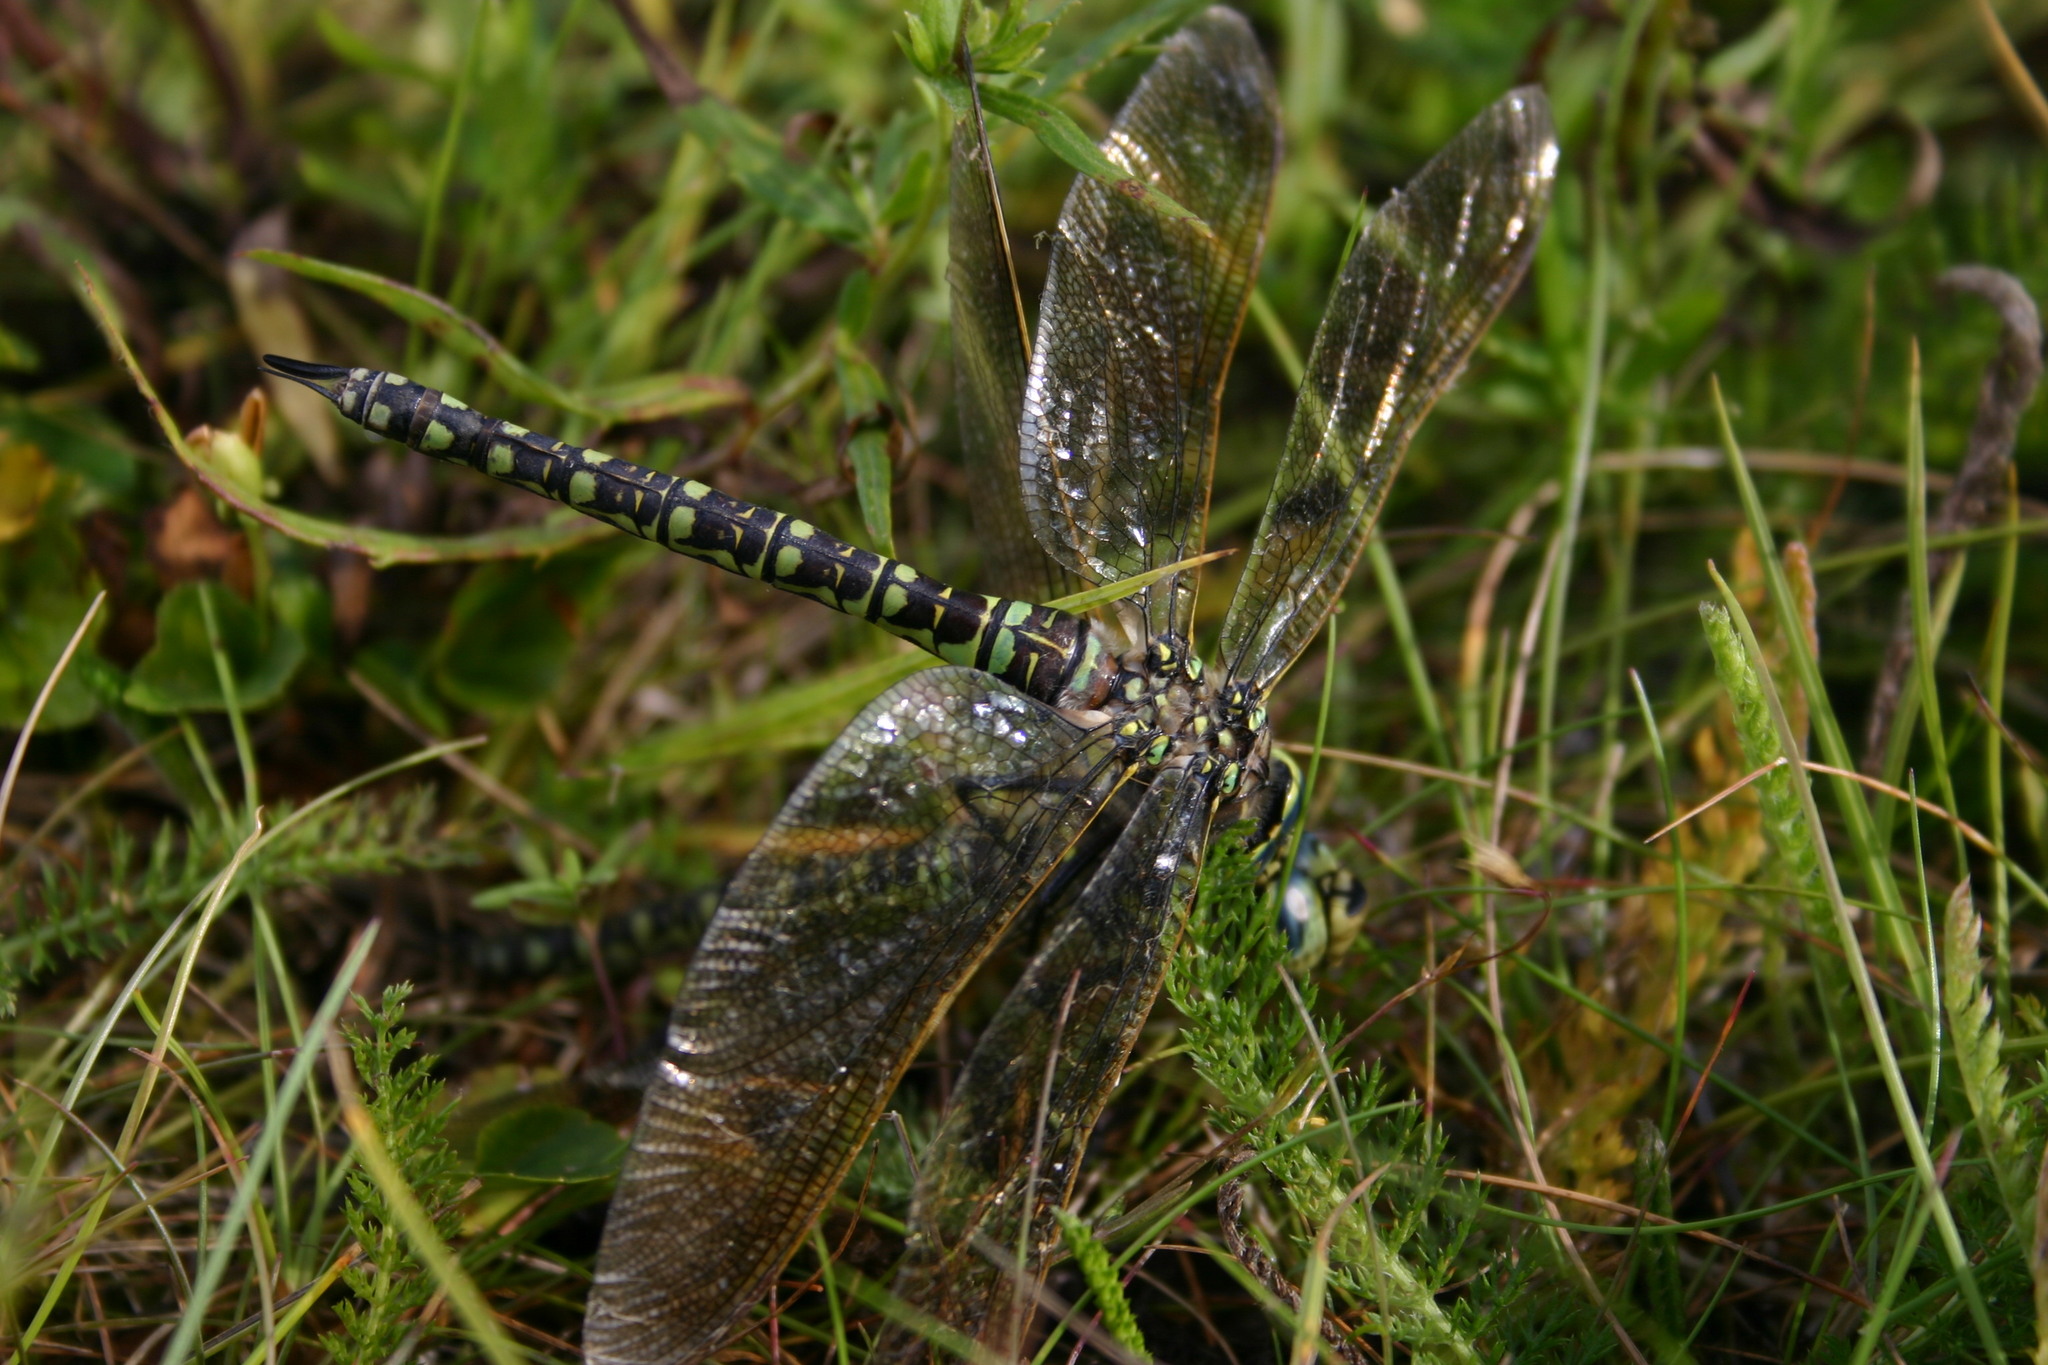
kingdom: Animalia
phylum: Arthropoda
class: Insecta
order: Odonata
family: Aeshnidae
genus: Aeshna
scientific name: Aeshna serrata
